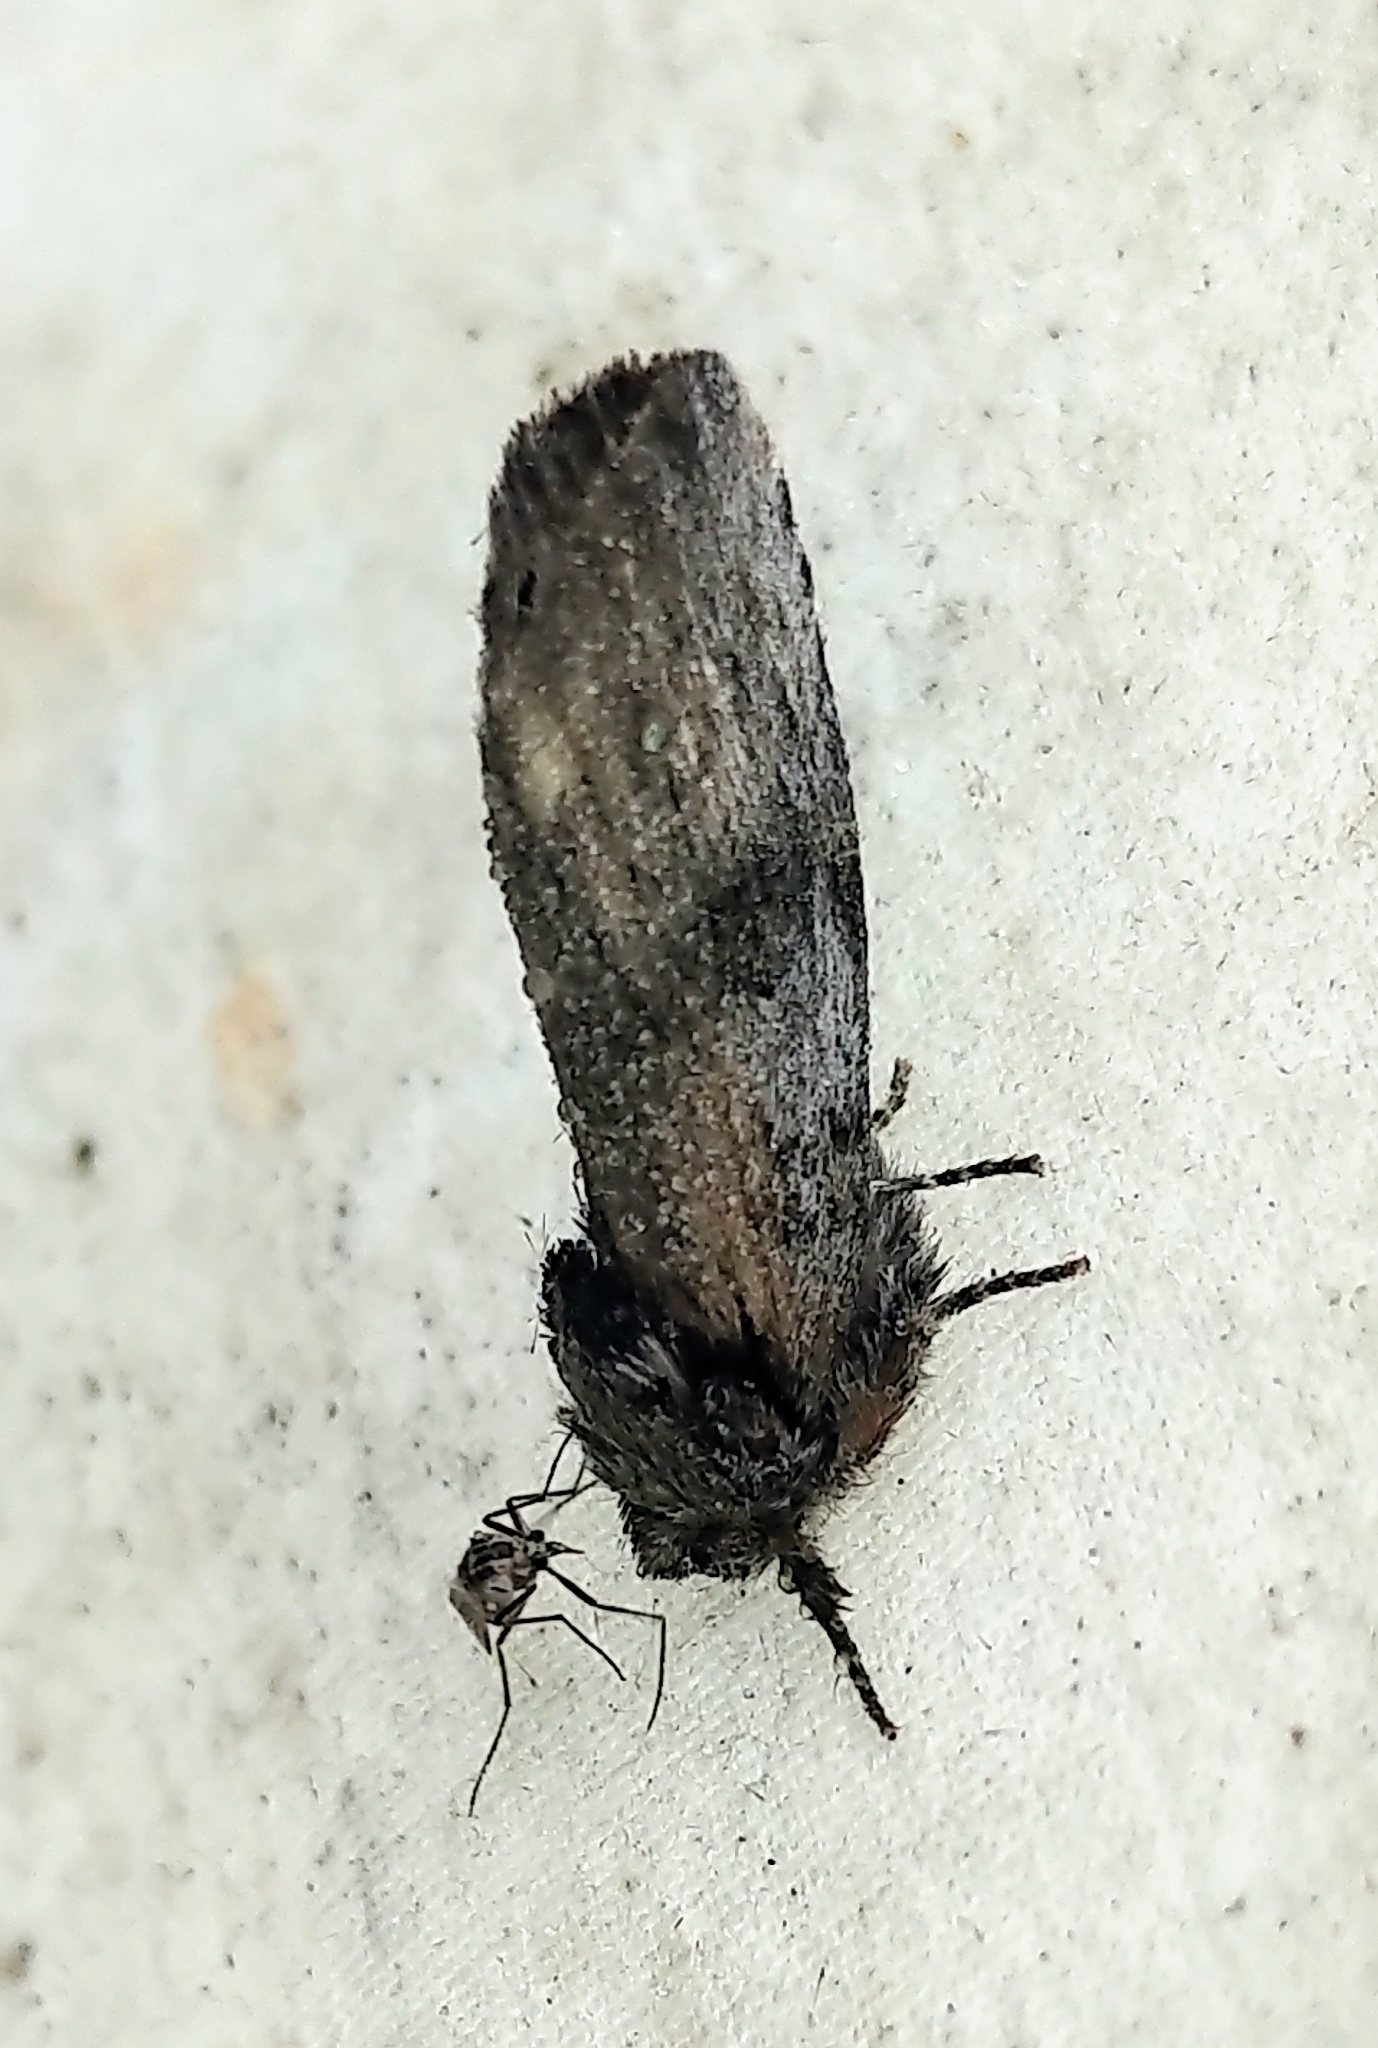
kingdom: Animalia
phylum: Arthropoda
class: Insecta
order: Lepidoptera
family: Notodontidae
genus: Schizura
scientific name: Schizura
